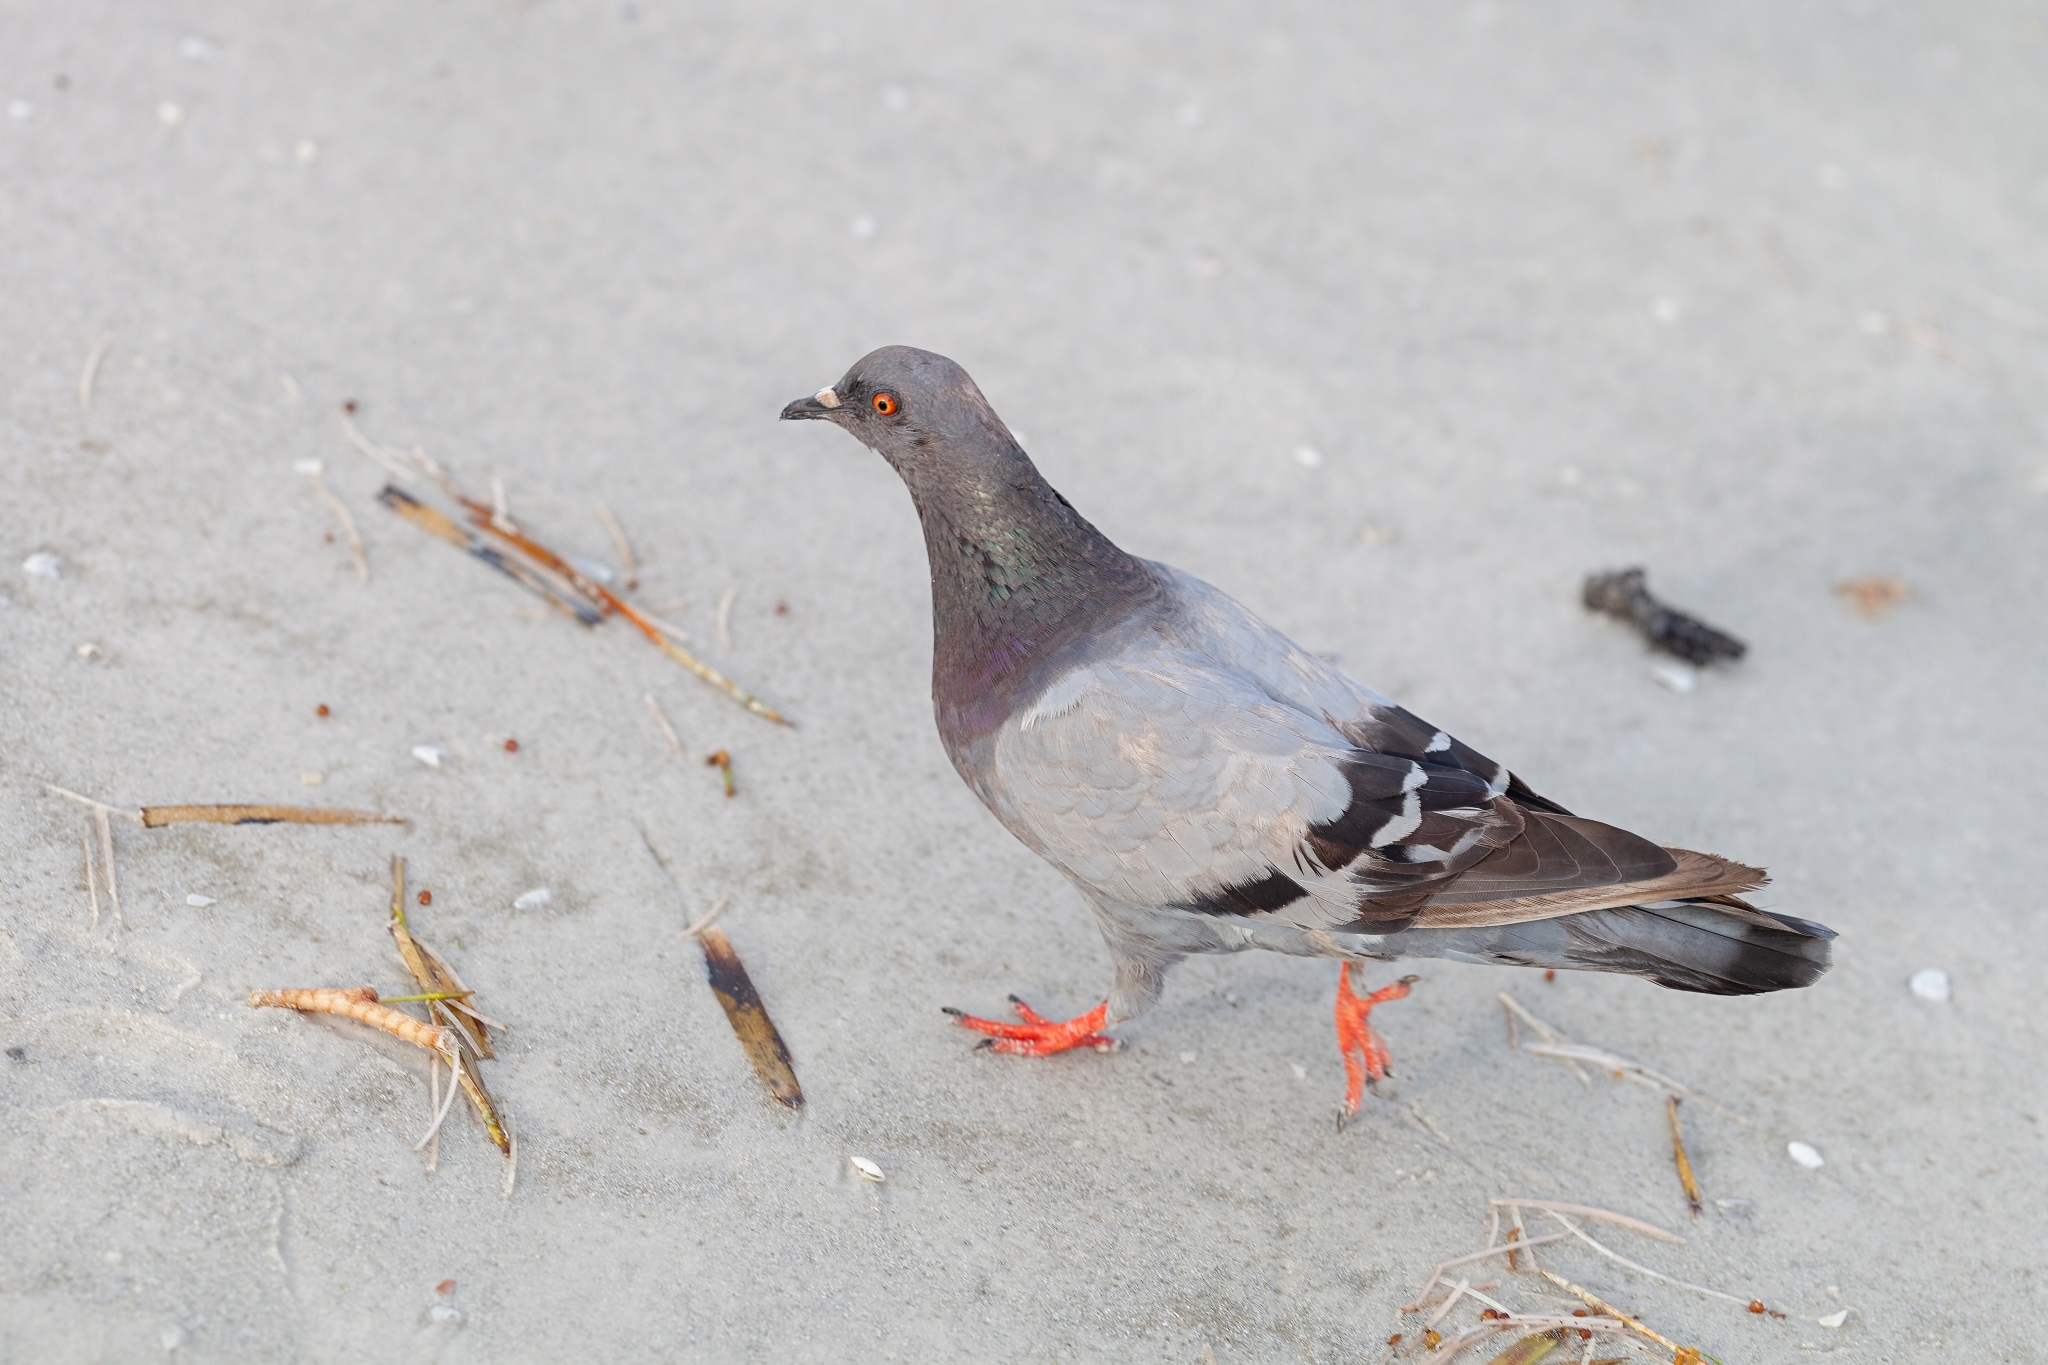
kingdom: Animalia
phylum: Chordata
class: Aves
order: Columbiformes
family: Columbidae
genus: Columba
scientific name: Columba livia
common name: Rock pigeon
